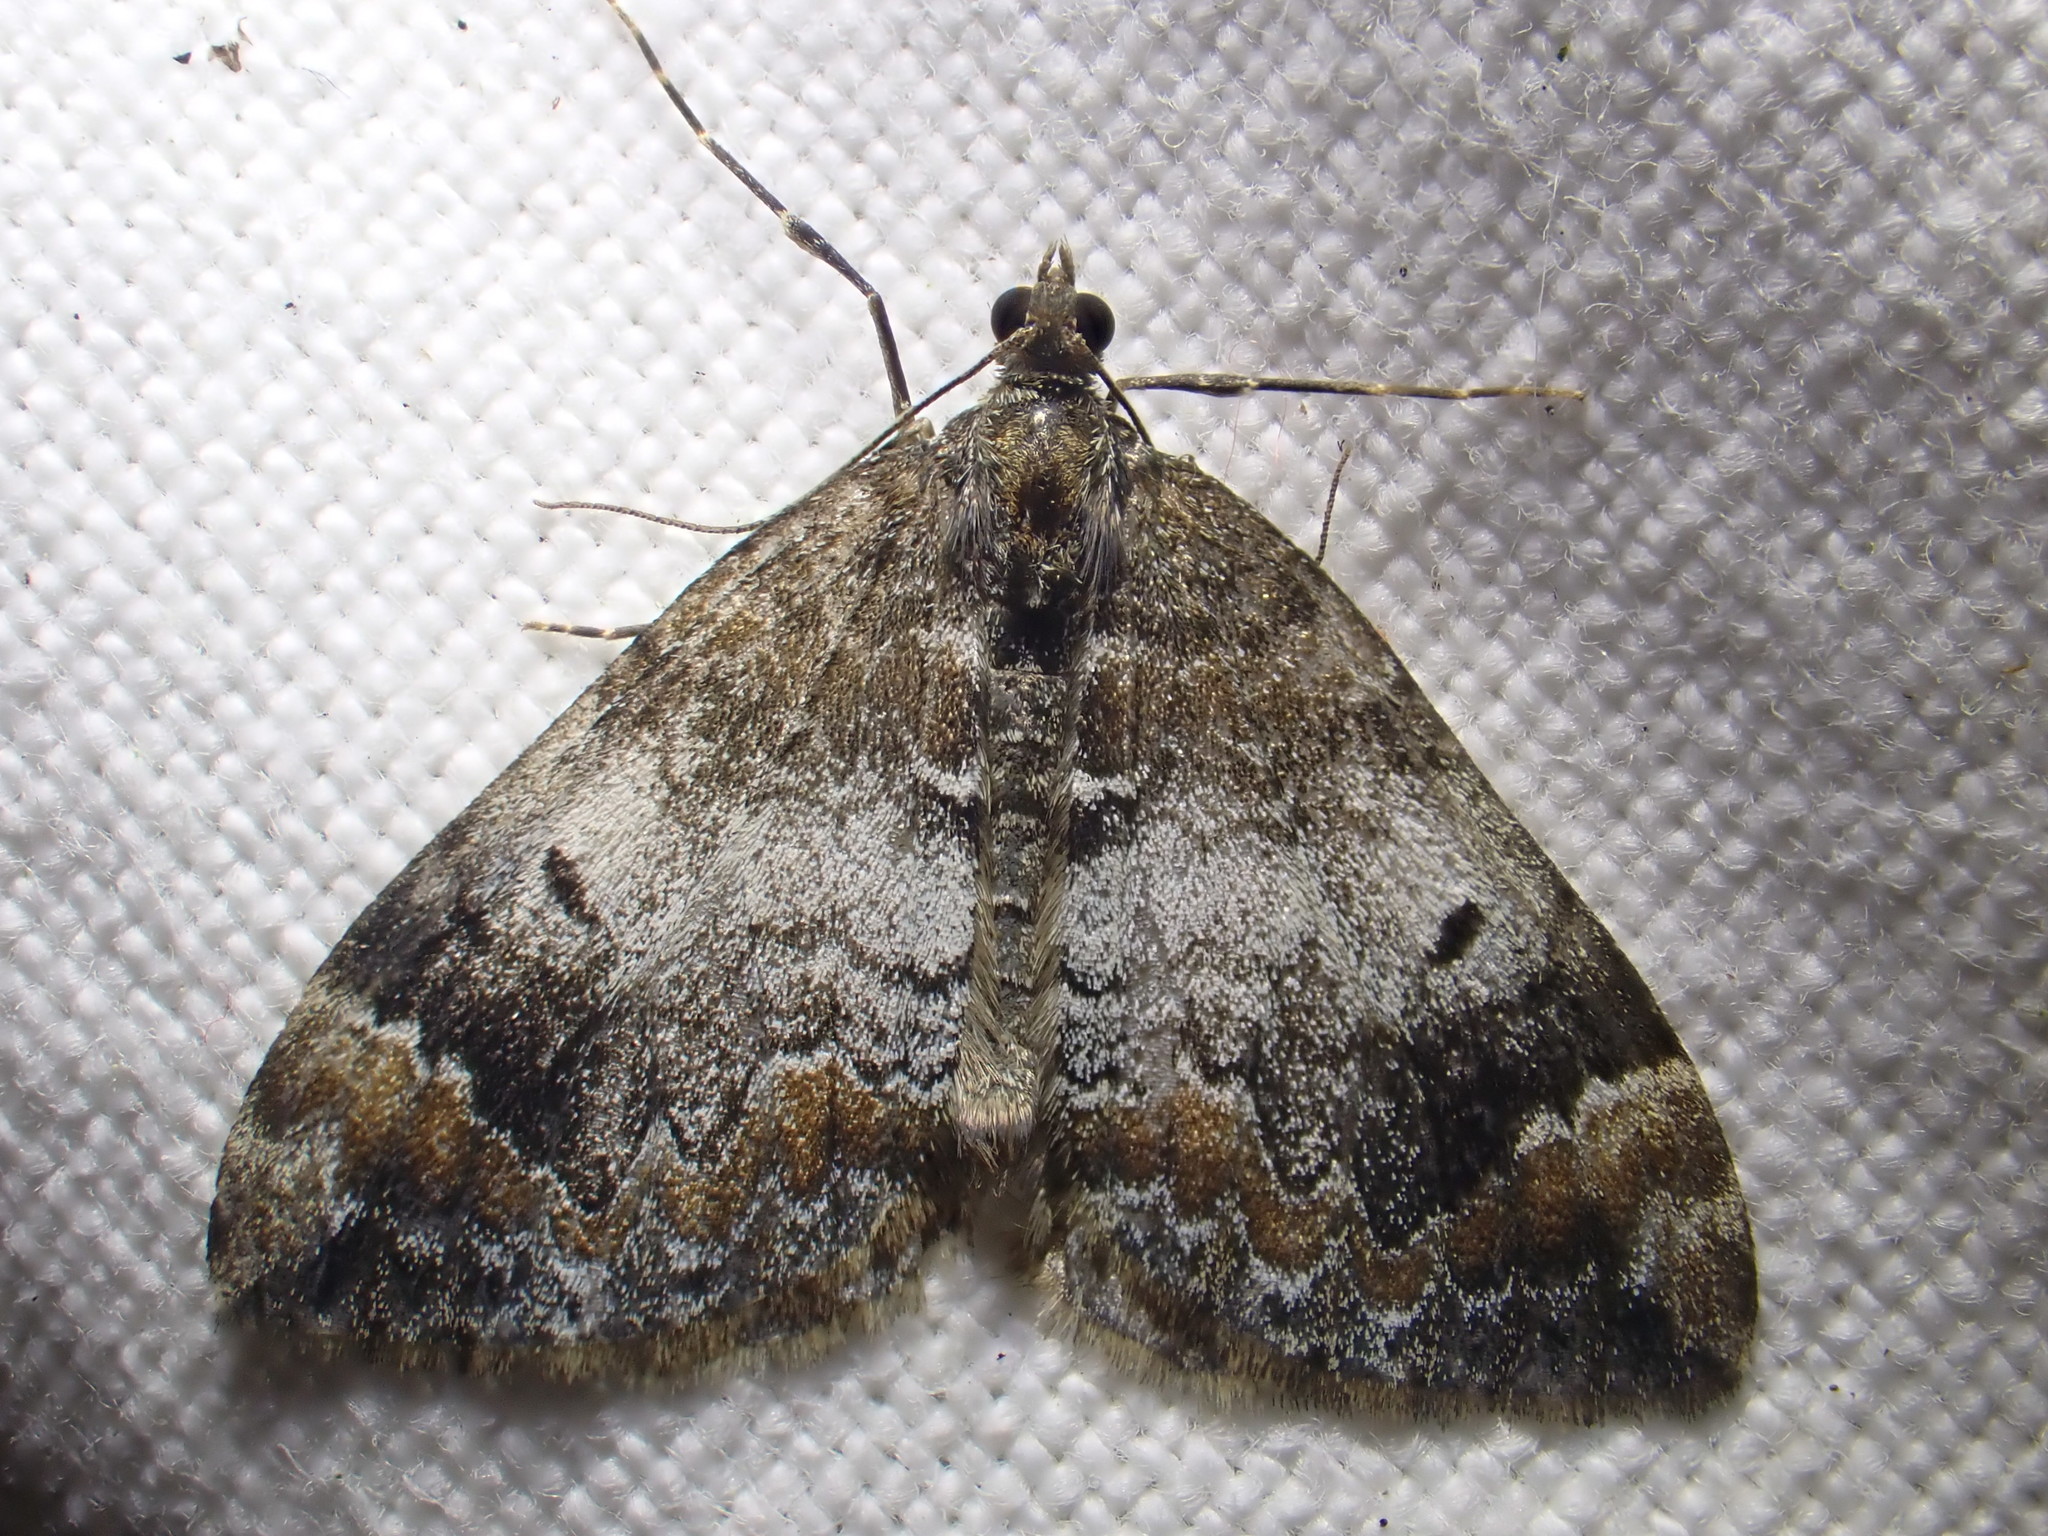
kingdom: Animalia
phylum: Arthropoda
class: Insecta
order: Lepidoptera
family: Geometridae
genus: Dysstroma
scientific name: Dysstroma truncata
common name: Common marbled carpet
